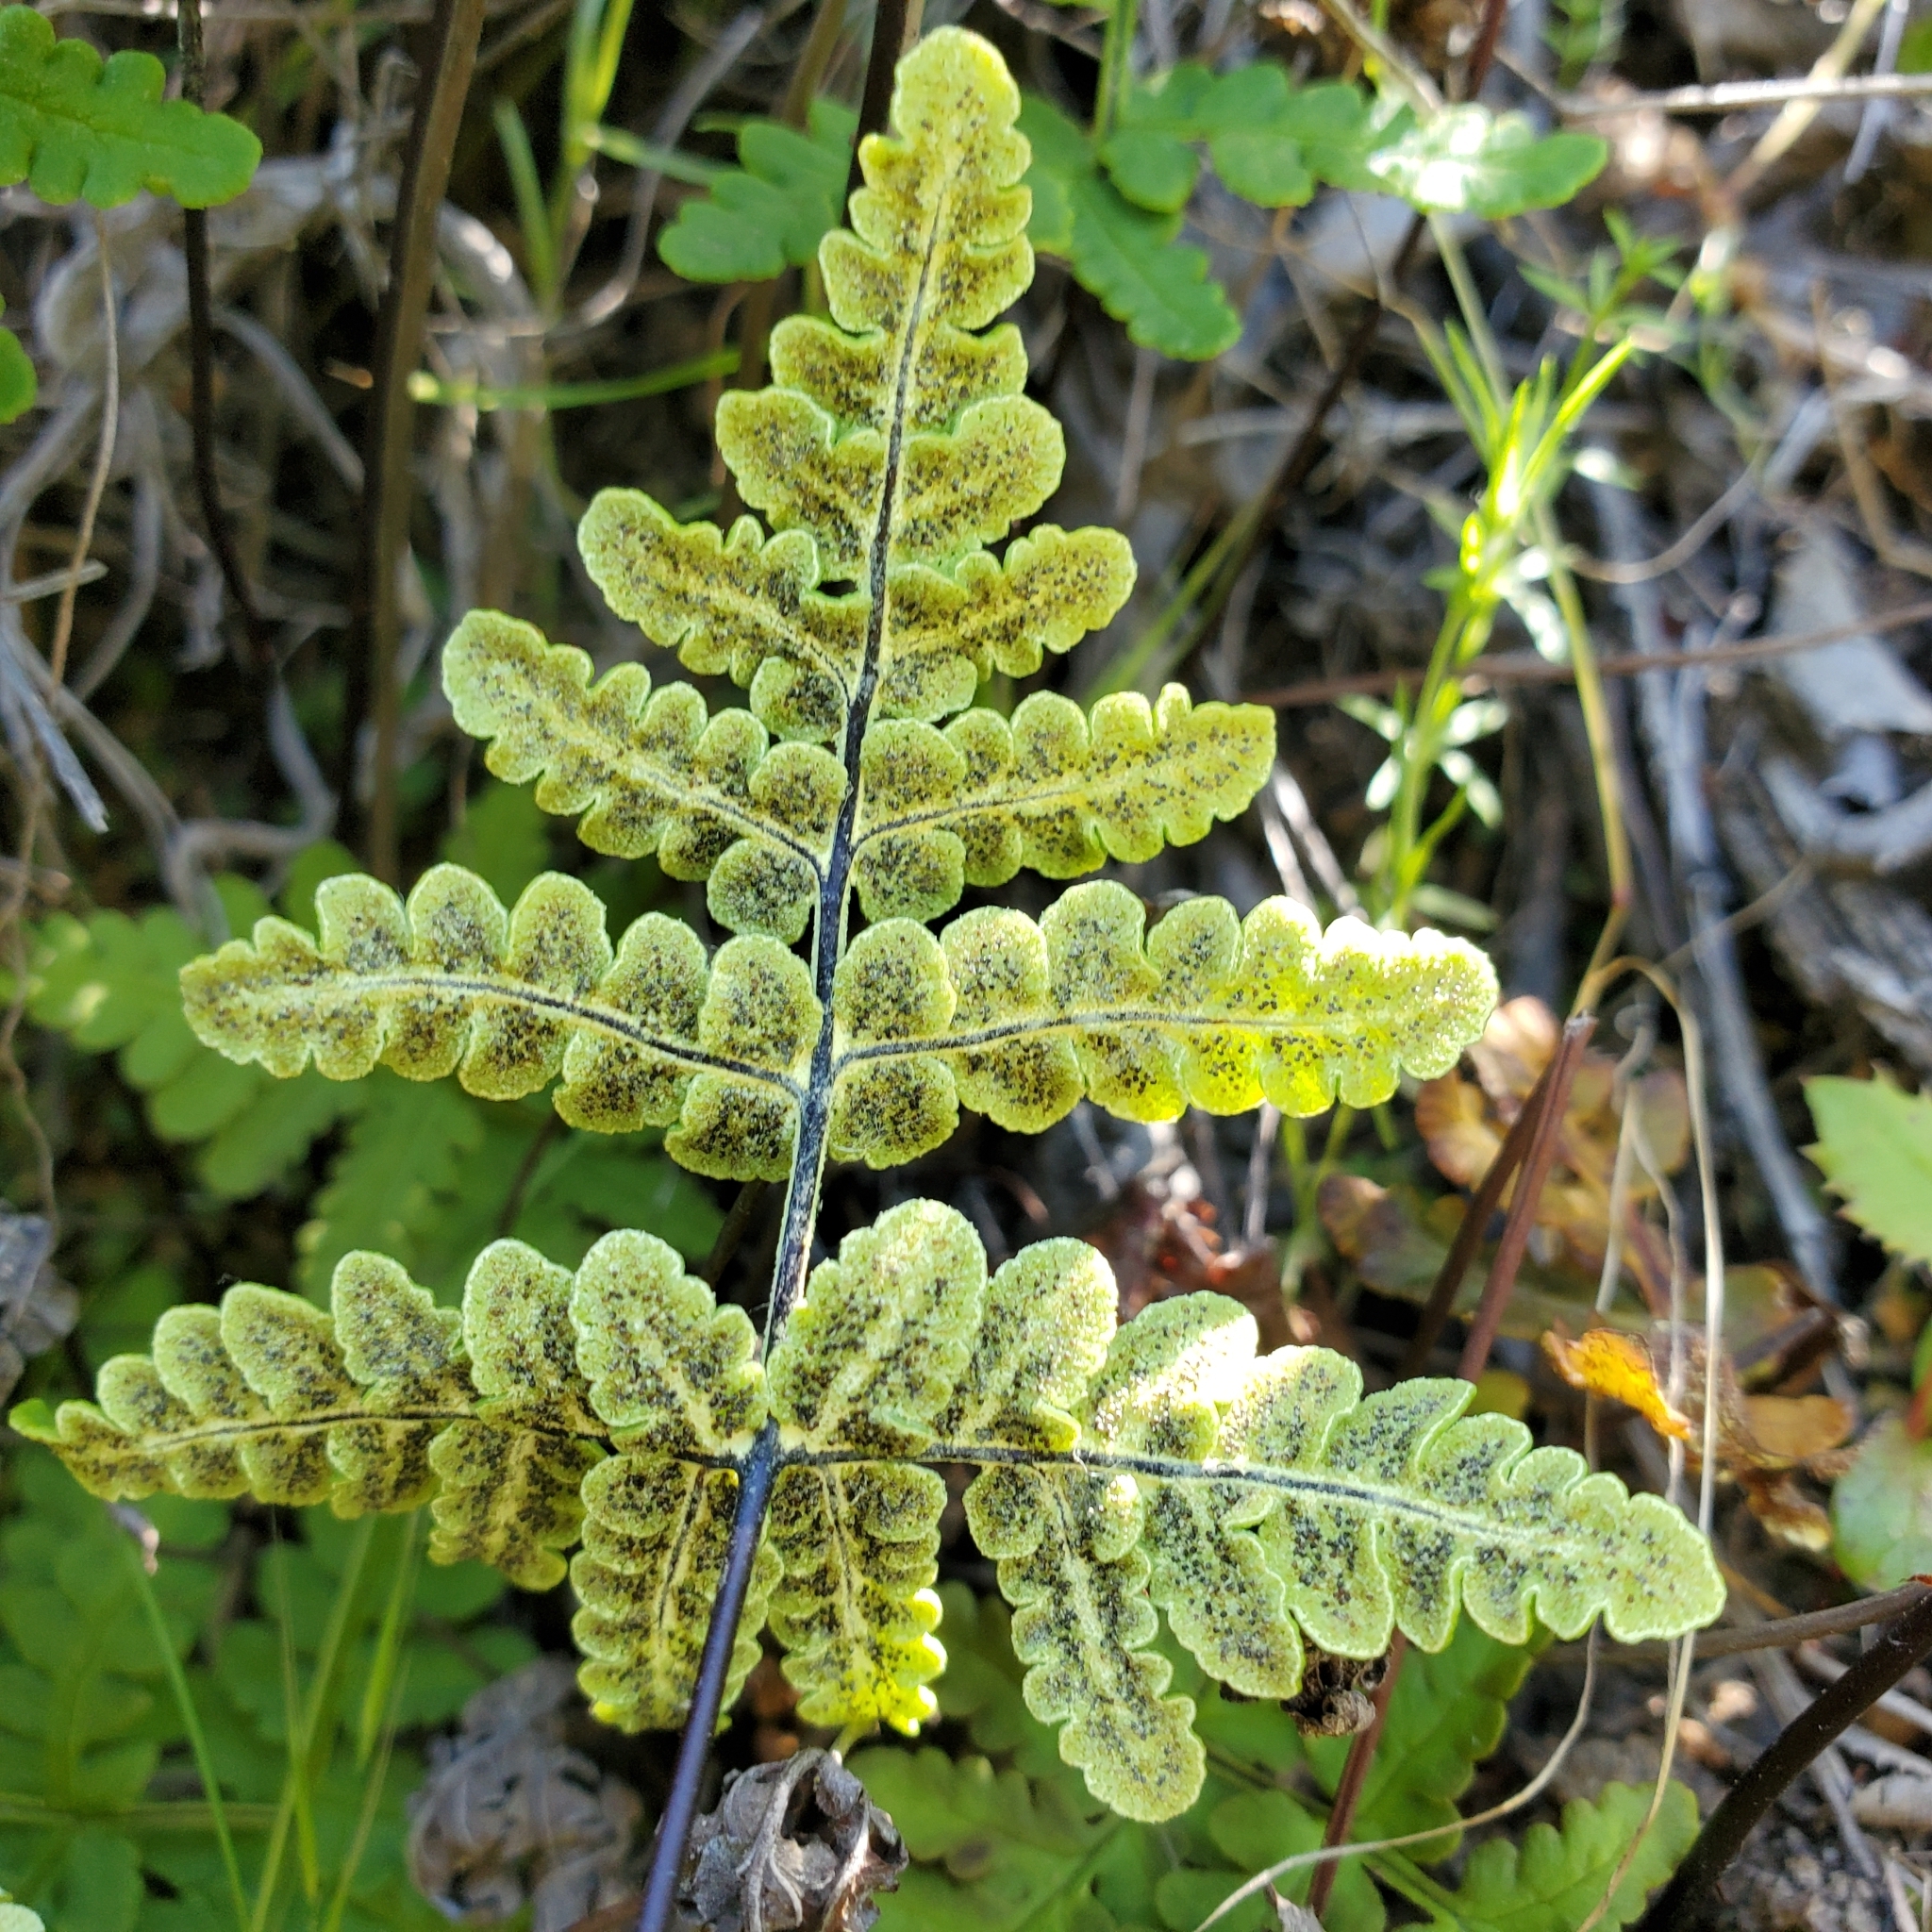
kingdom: Plantae
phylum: Tracheophyta
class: Polypodiopsida
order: Polypodiales
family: Pteridaceae
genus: Pentagramma
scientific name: Pentagramma triangularis
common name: Gold fern
